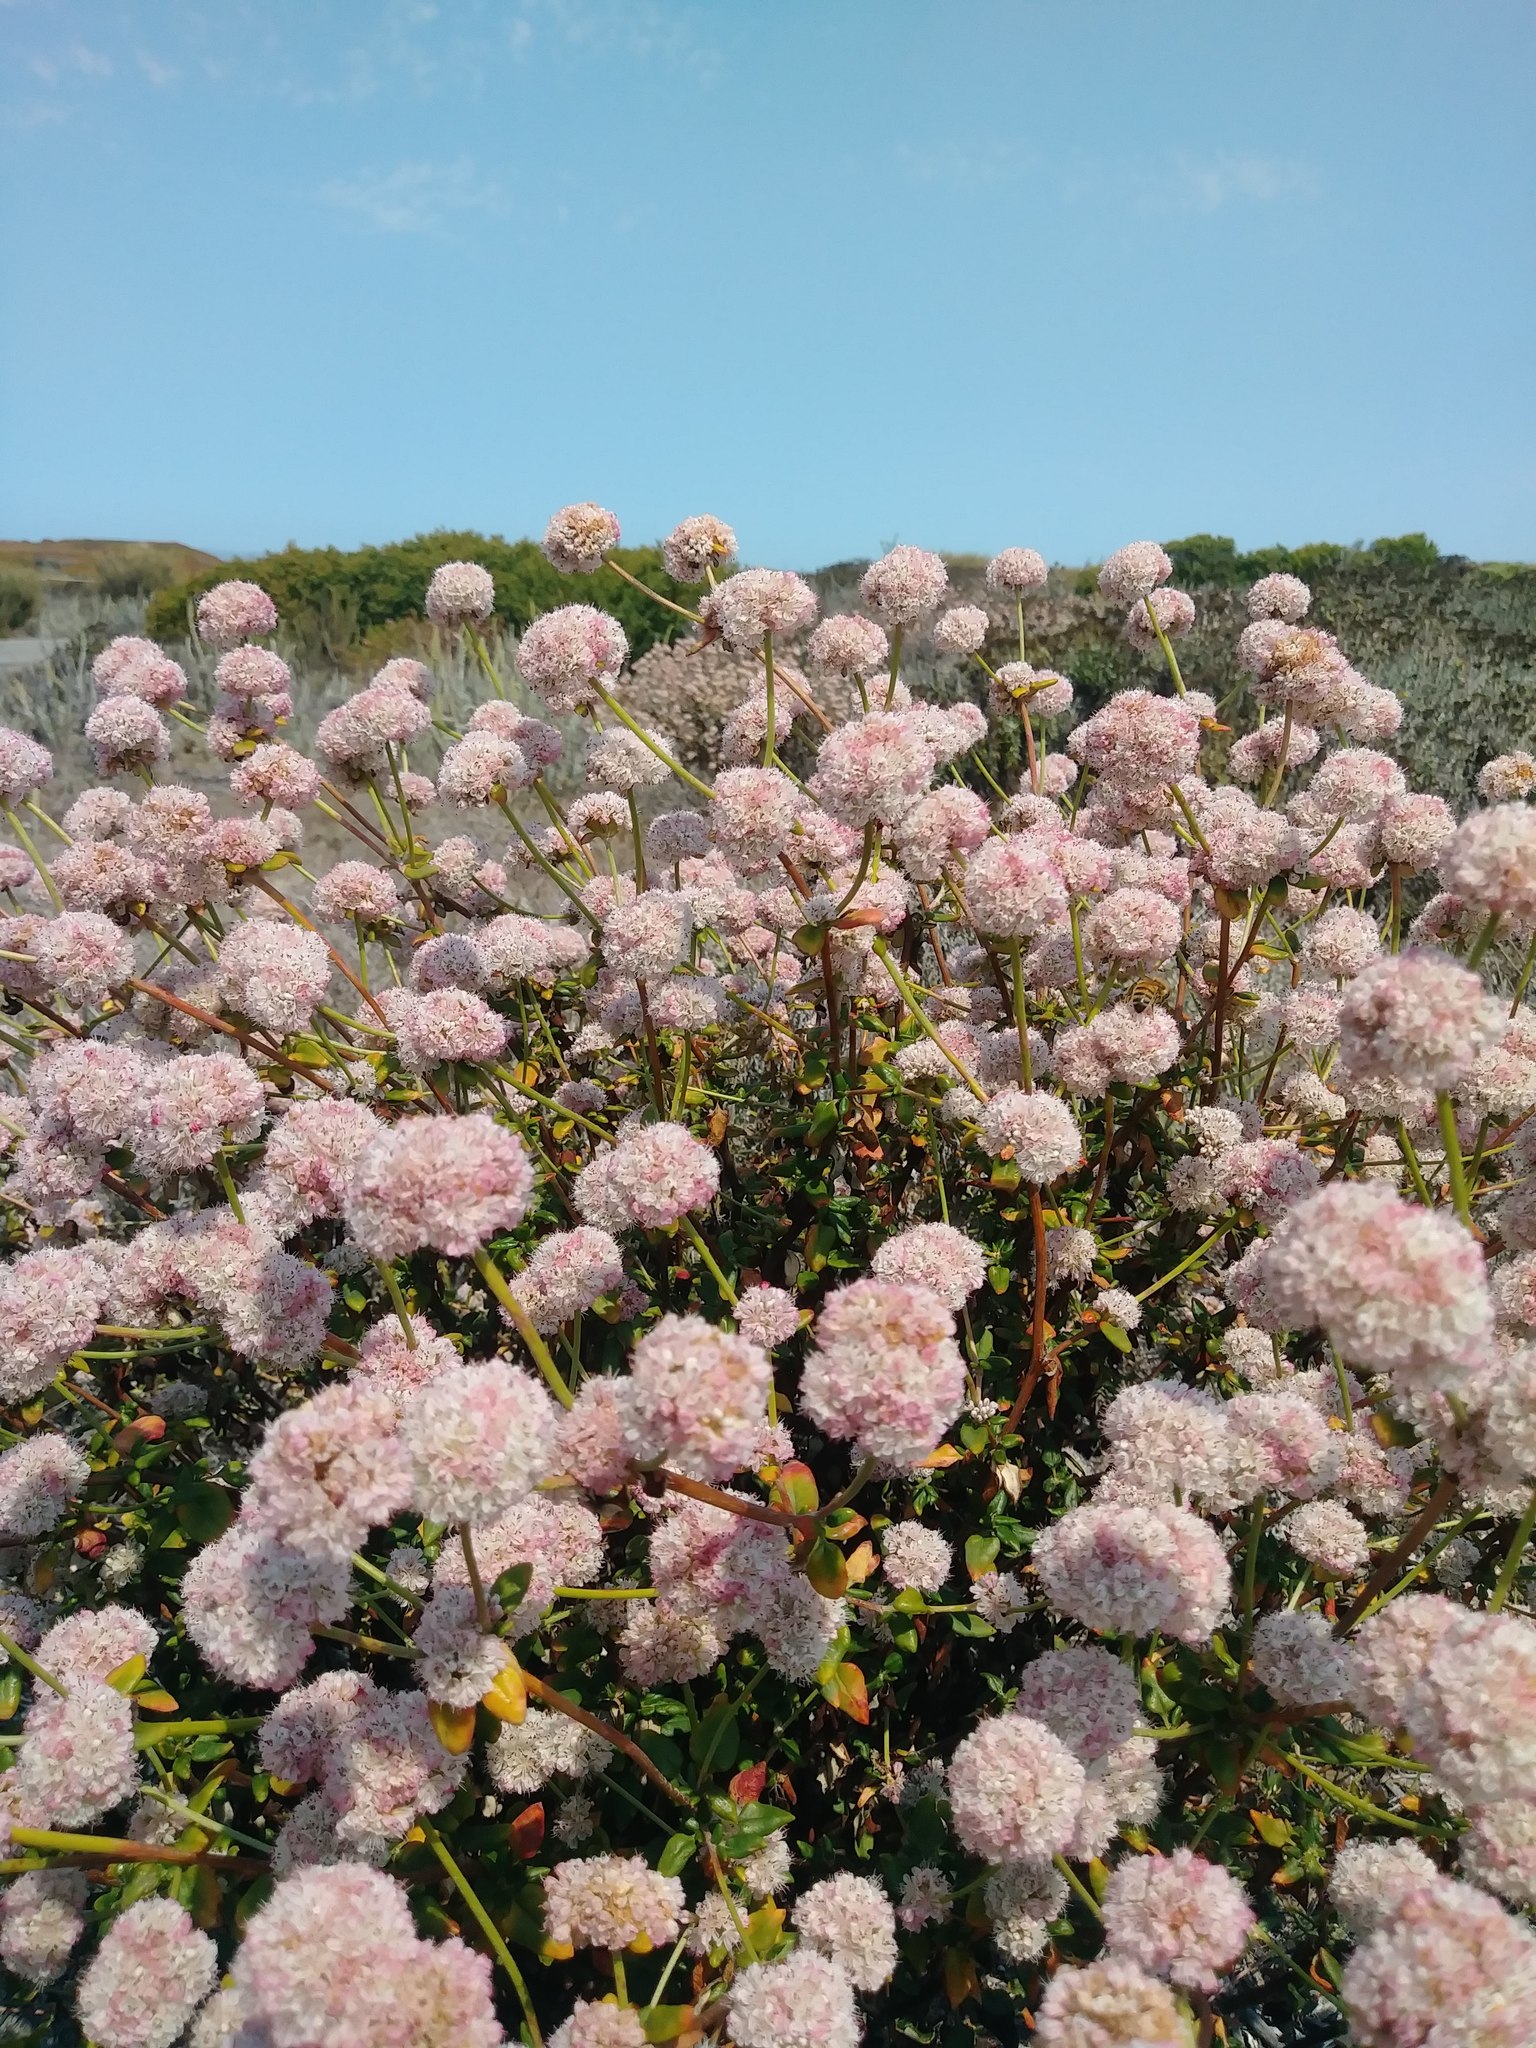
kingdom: Plantae
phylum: Tracheophyta
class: Magnoliopsida
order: Caryophyllales
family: Polygonaceae
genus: Eriogonum
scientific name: Eriogonum parvifolium
